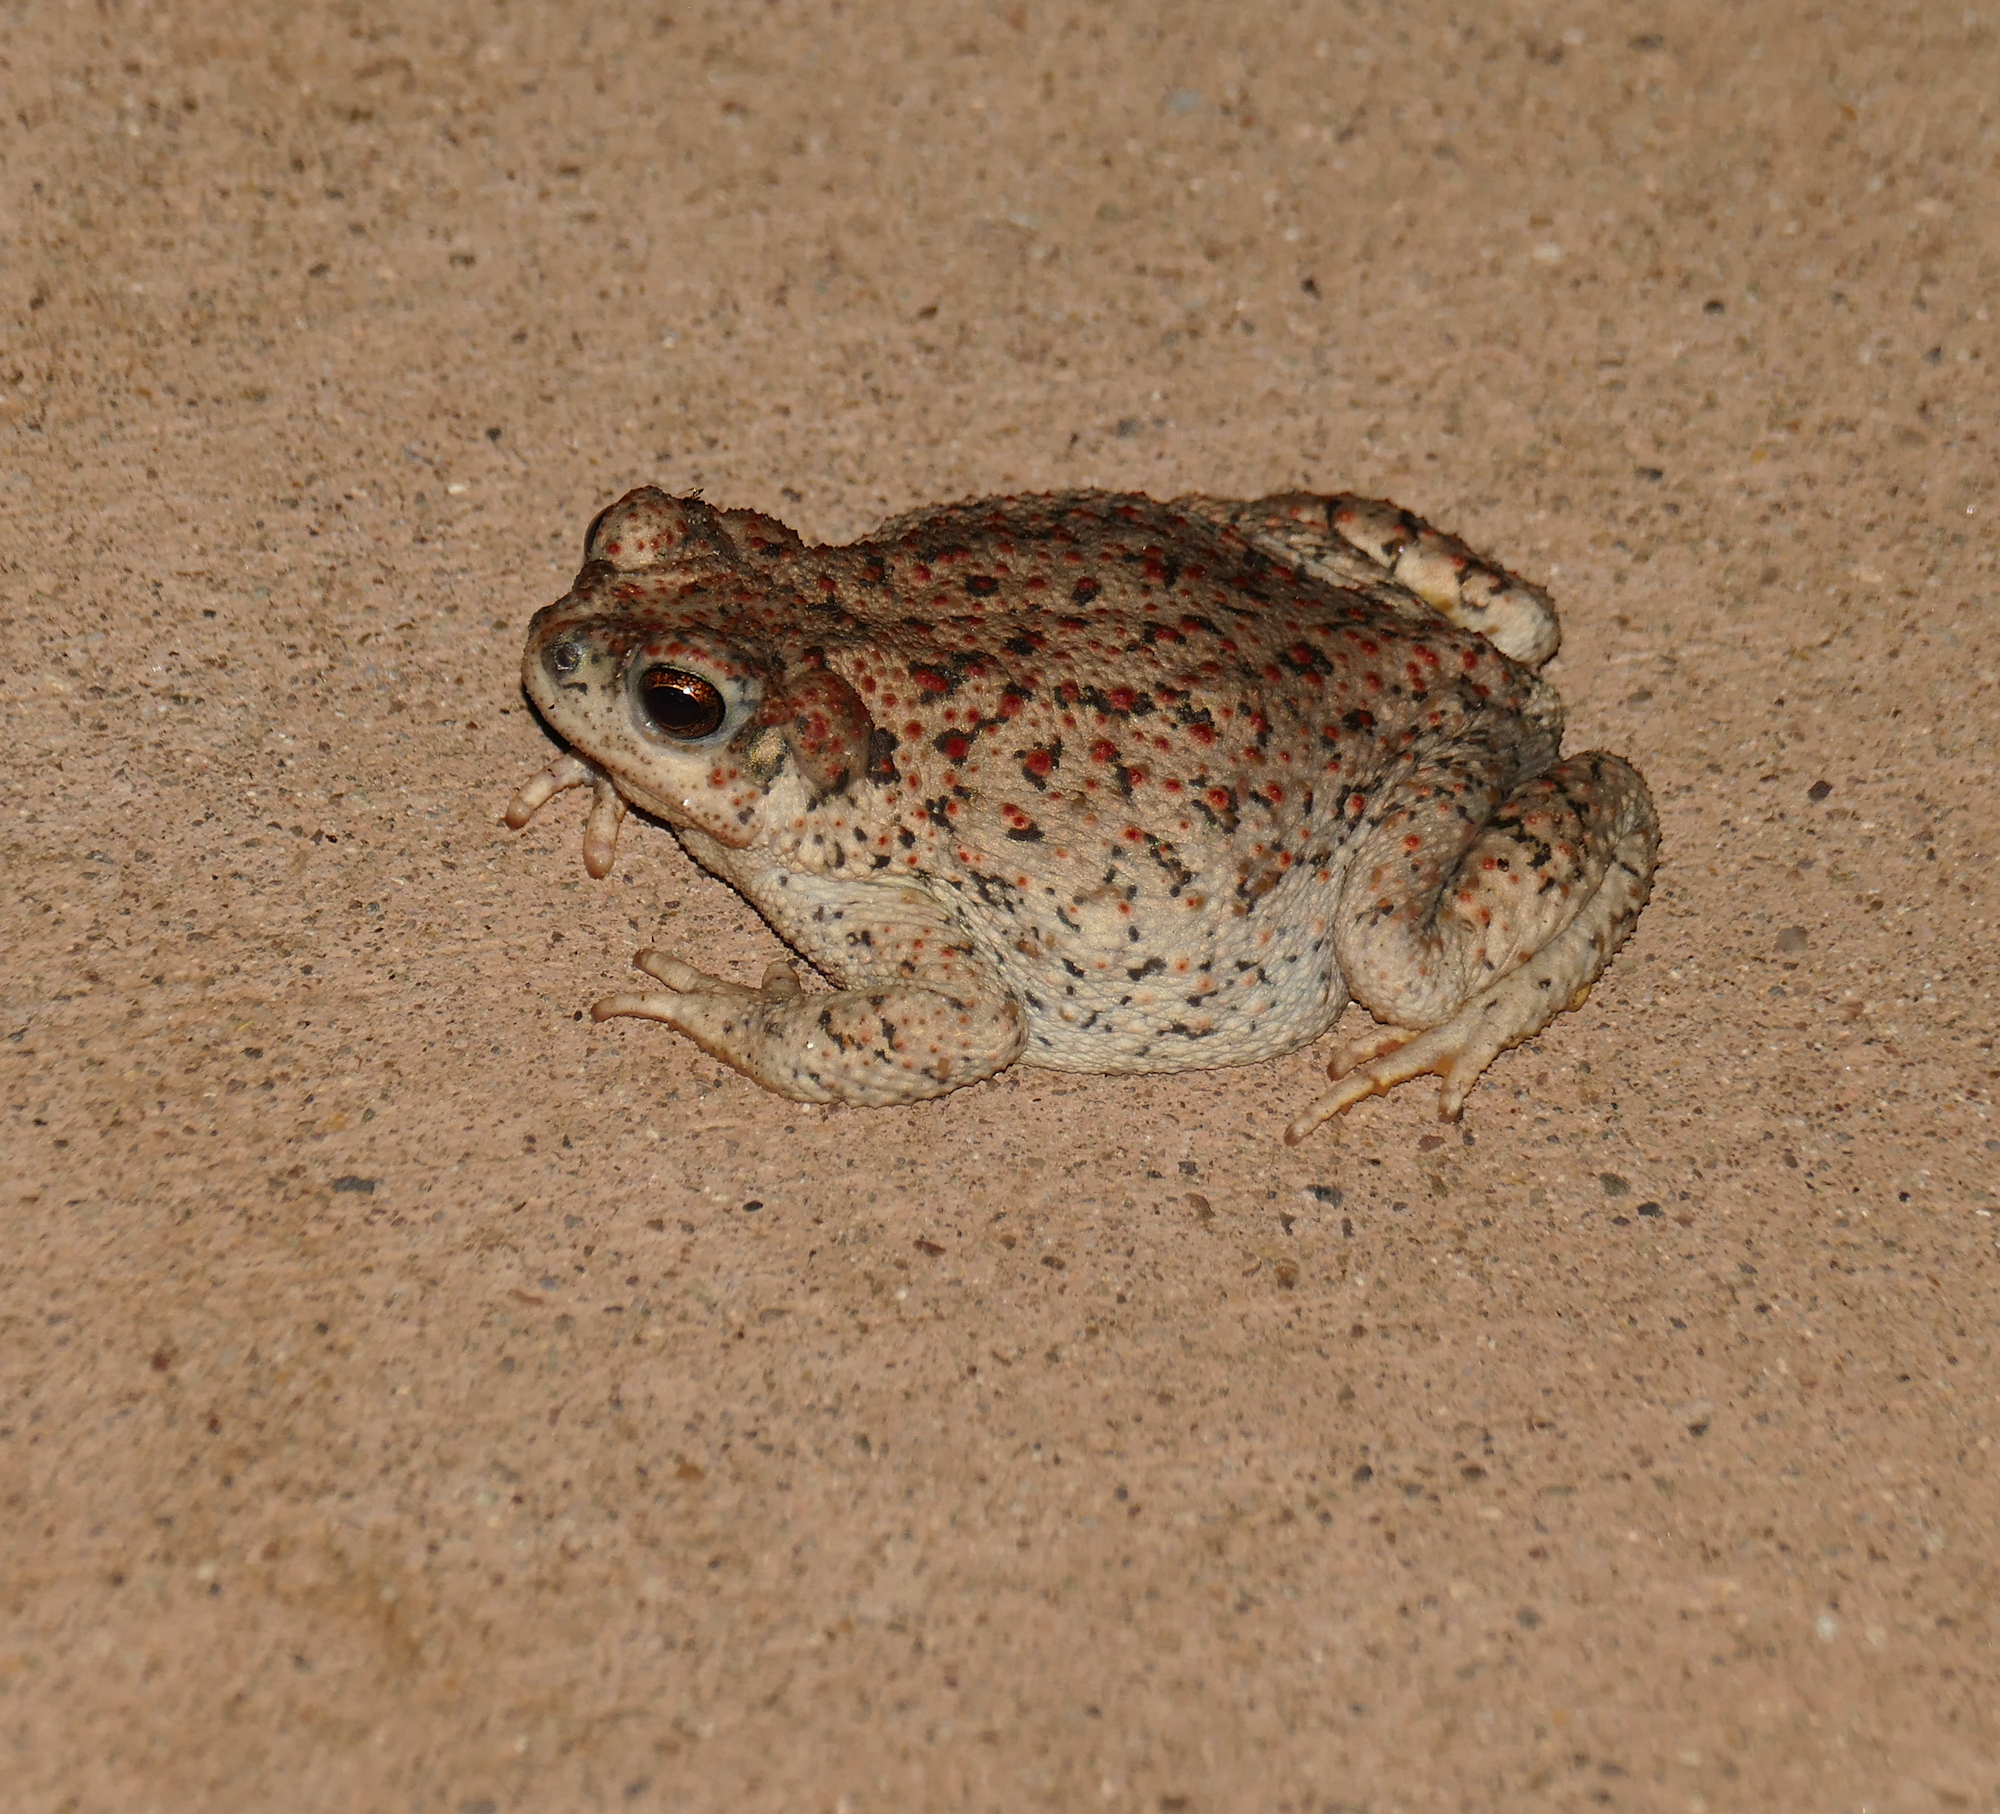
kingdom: Animalia
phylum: Chordata
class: Amphibia
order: Anura
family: Bufonidae
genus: Anaxyrus
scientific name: Anaxyrus punctatus
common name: Red-spotted toad
